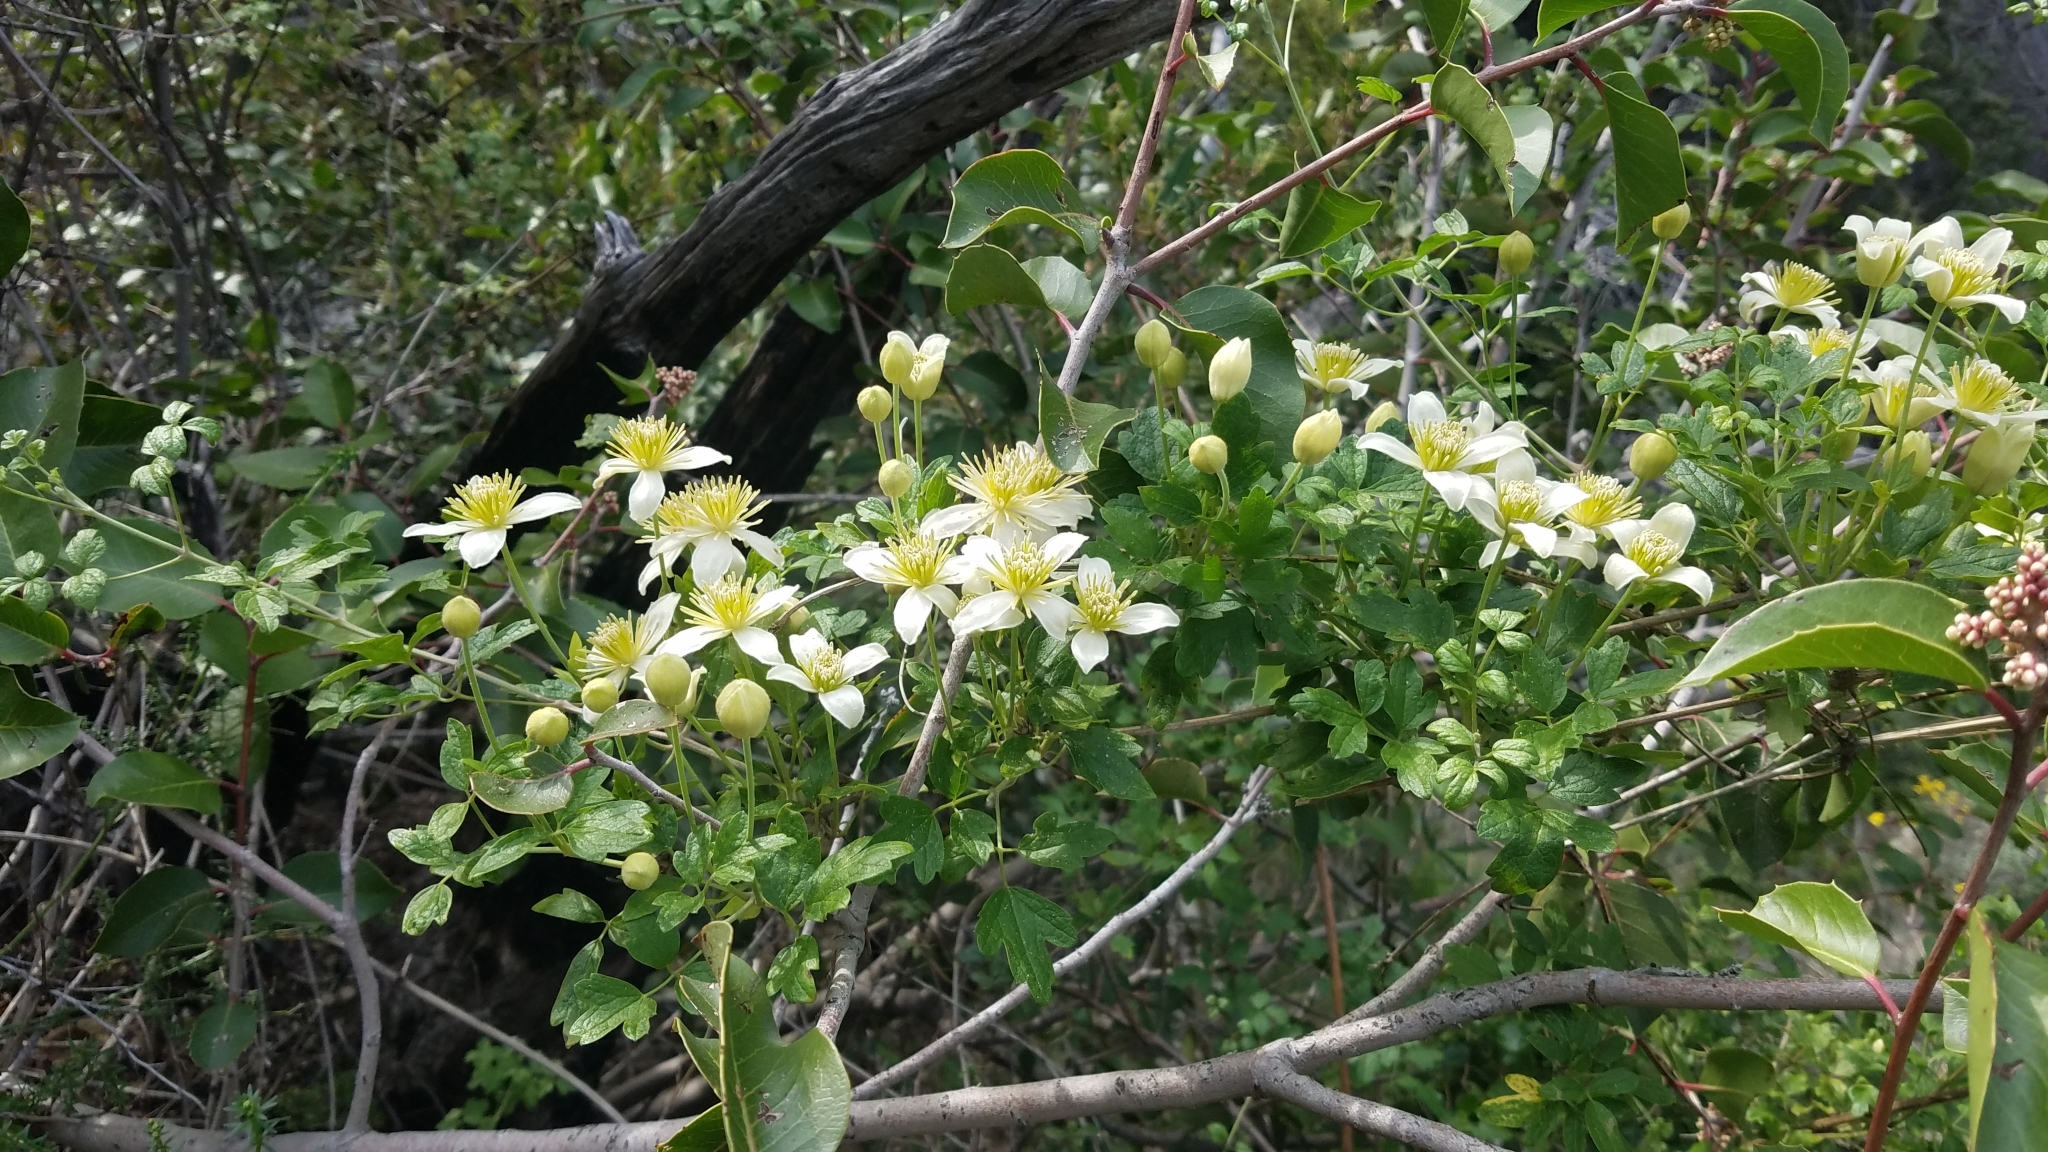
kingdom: Plantae
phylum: Tracheophyta
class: Magnoliopsida
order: Ranunculales
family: Ranunculaceae
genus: Clematis
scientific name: Clematis lasiantha
